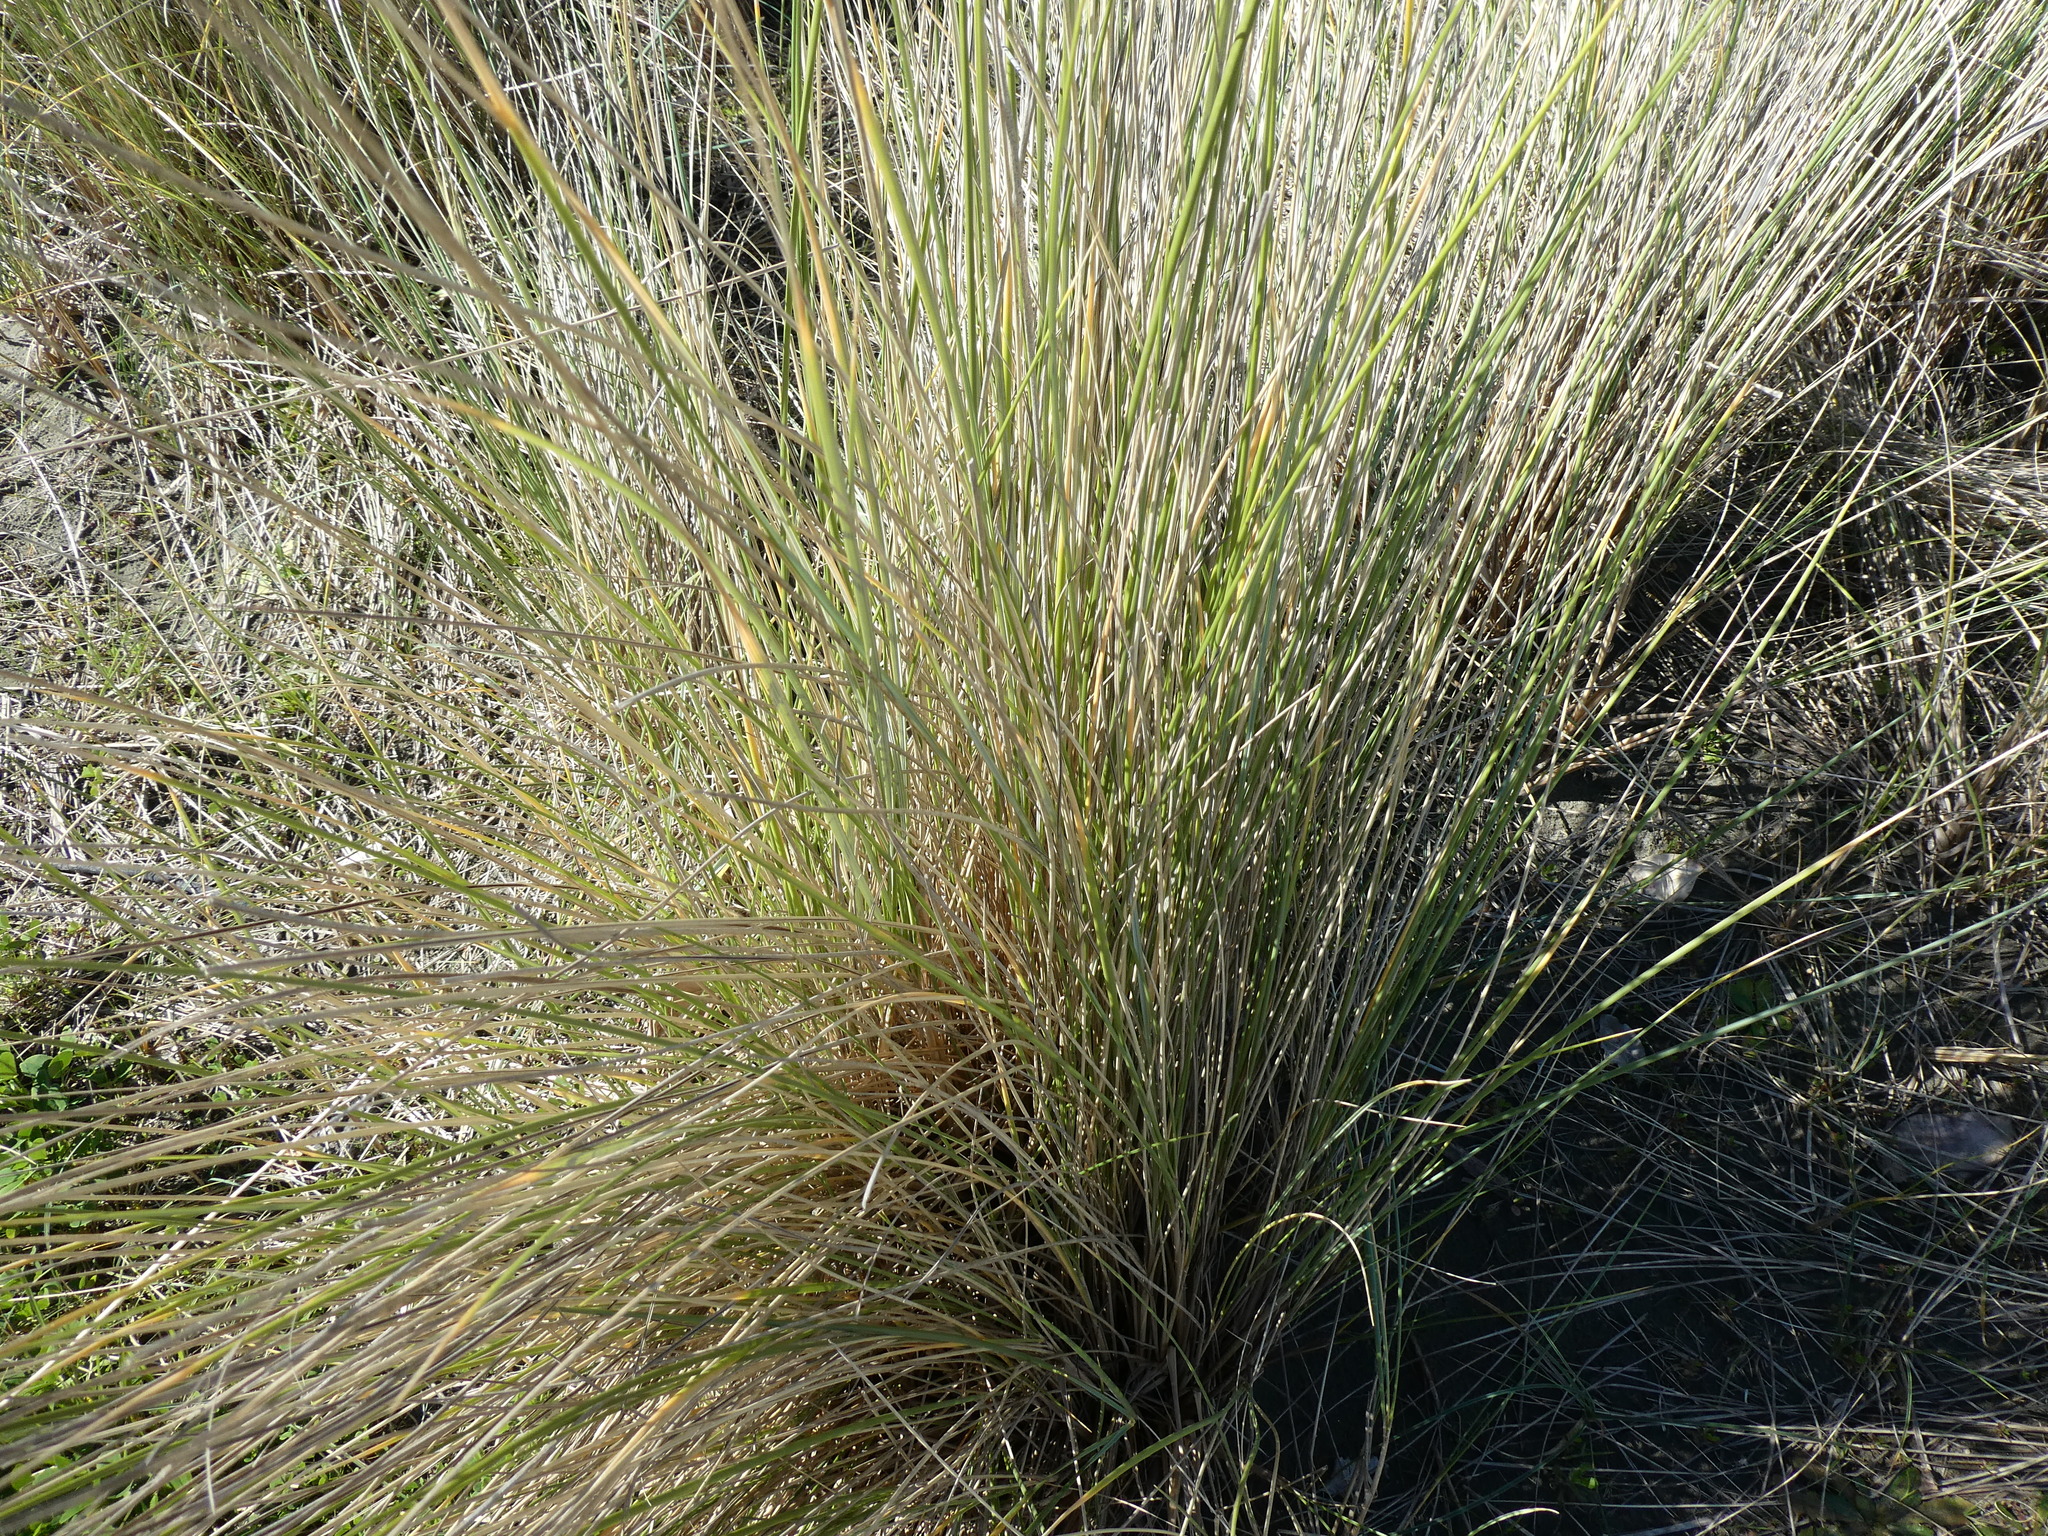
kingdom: Plantae
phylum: Tracheophyta
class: Liliopsida
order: Poales
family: Poaceae
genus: Calamagrostis
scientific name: Calamagrostis arenaria
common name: European beachgrass
